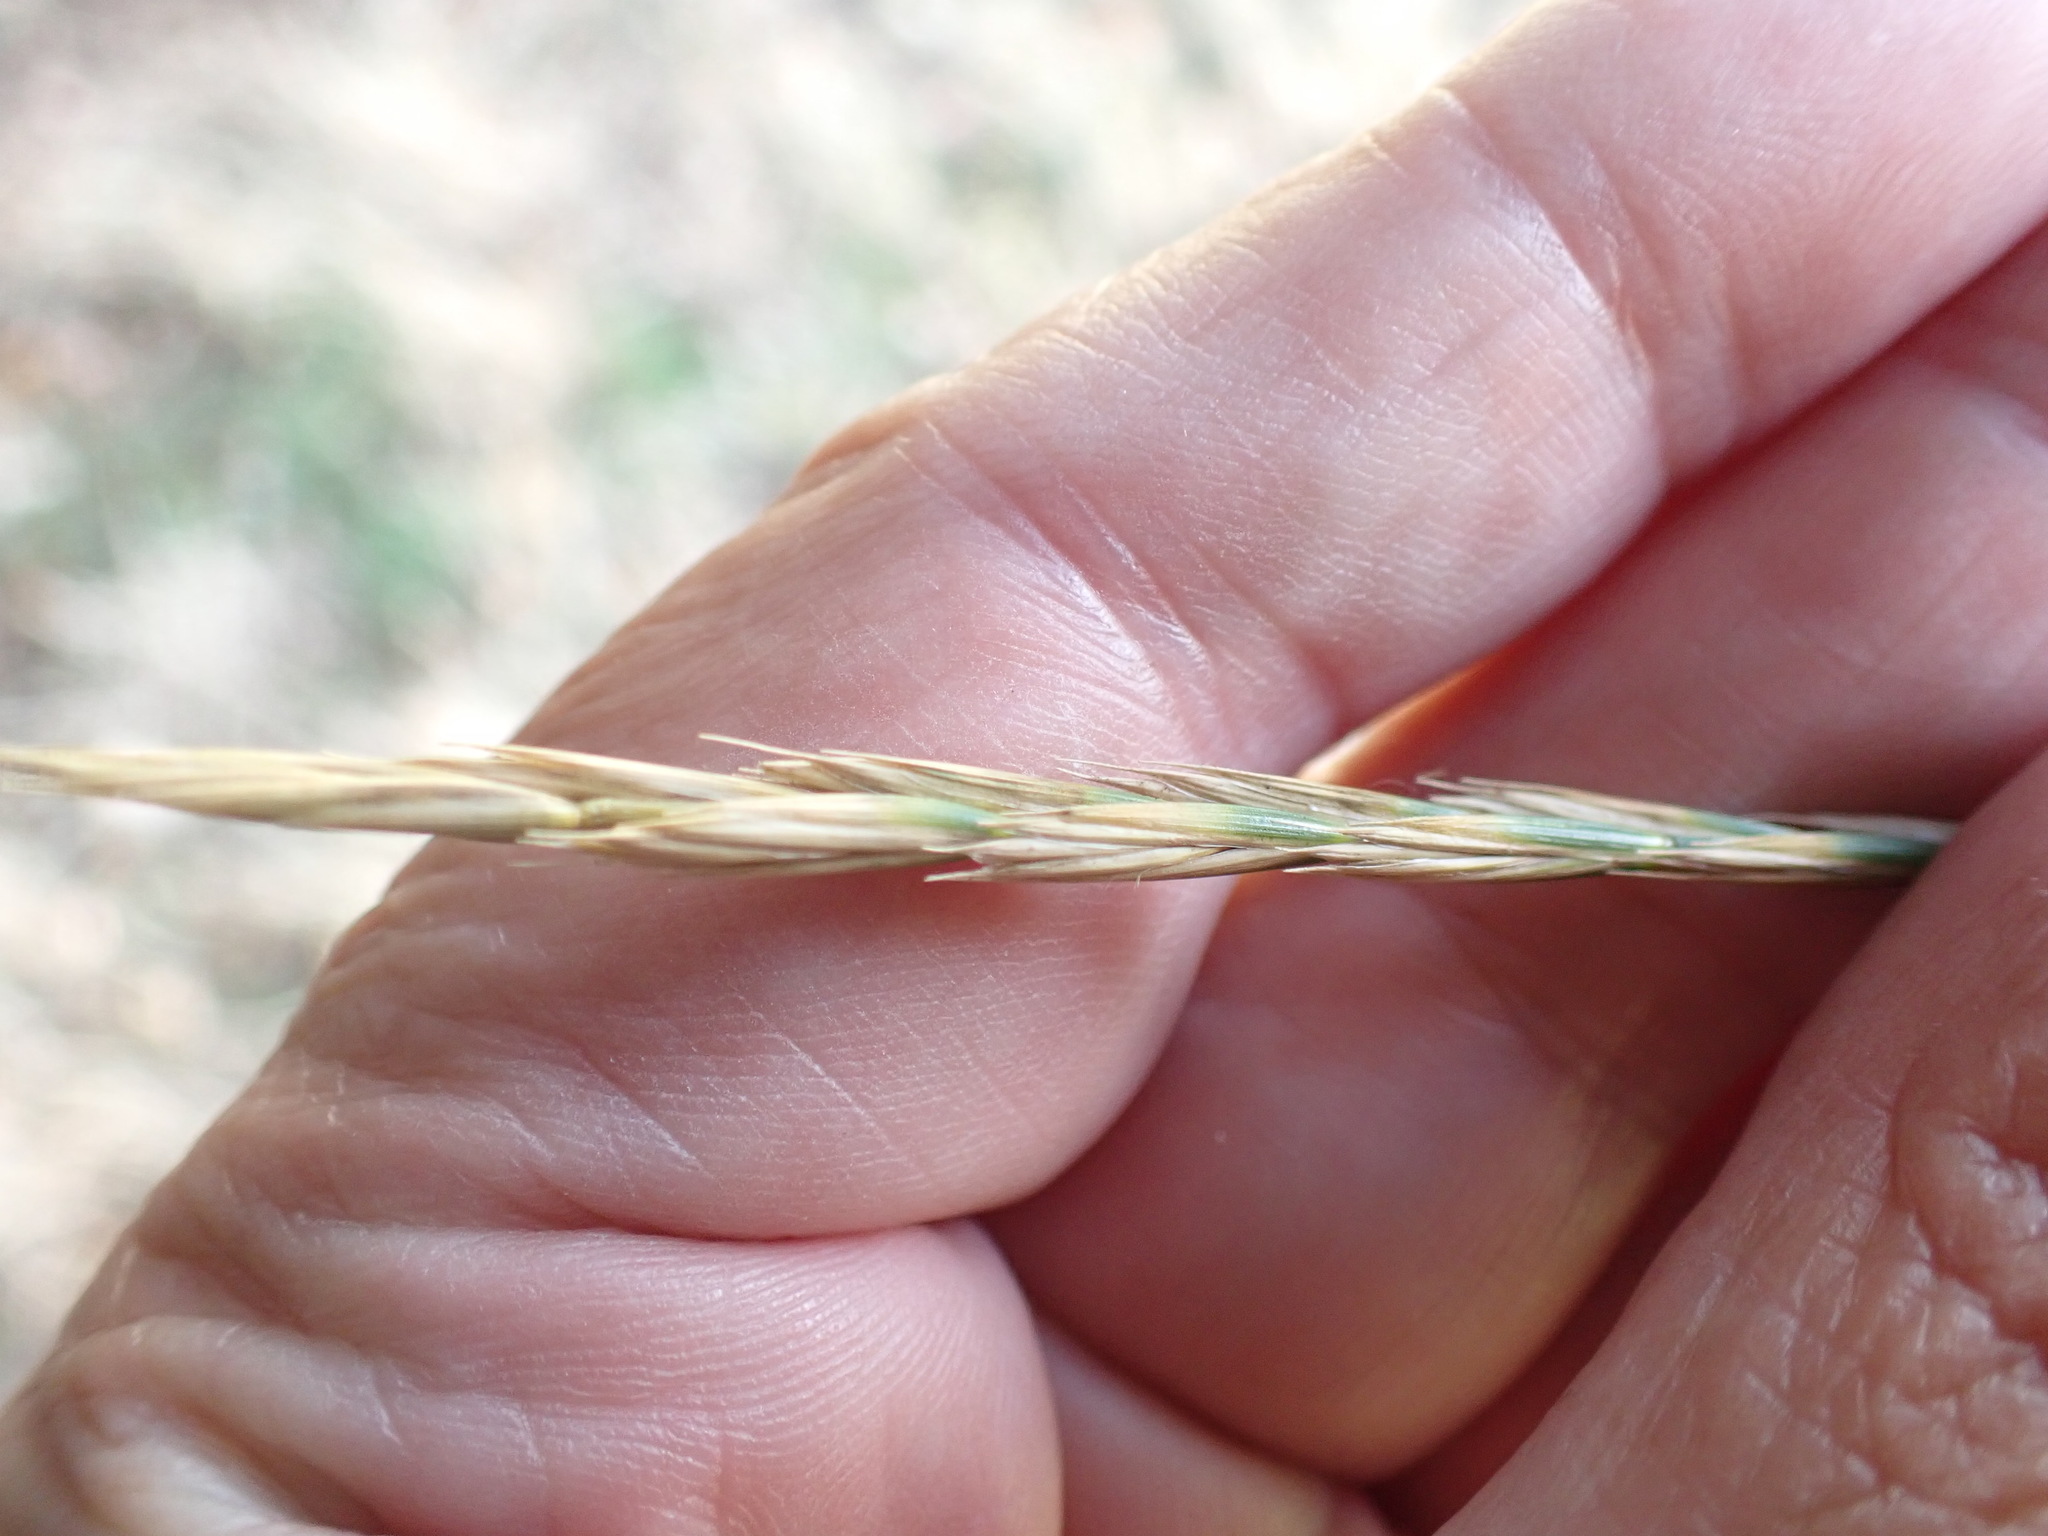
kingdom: Plantae
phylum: Tracheophyta
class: Liliopsida
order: Poales
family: Poaceae
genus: Elymus
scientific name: Elymus repens
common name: Quackgrass
